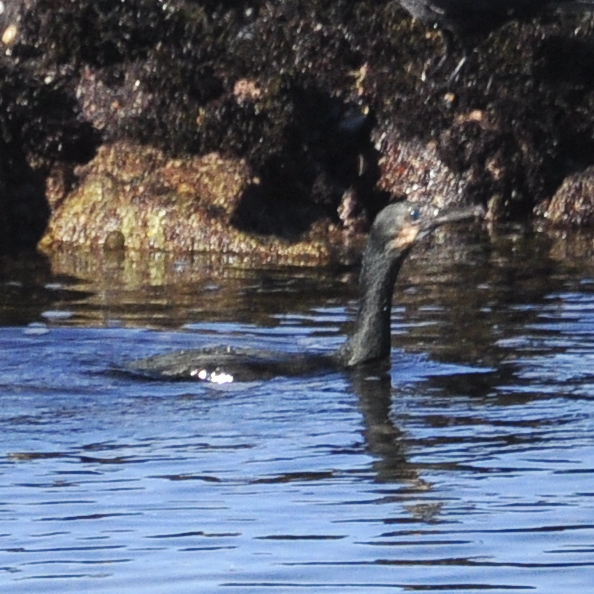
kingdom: Animalia
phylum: Chordata
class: Aves
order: Suliformes
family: Phalacrocoracidae
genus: Urile
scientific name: Urile penicillatus
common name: Brandt's cormorant
